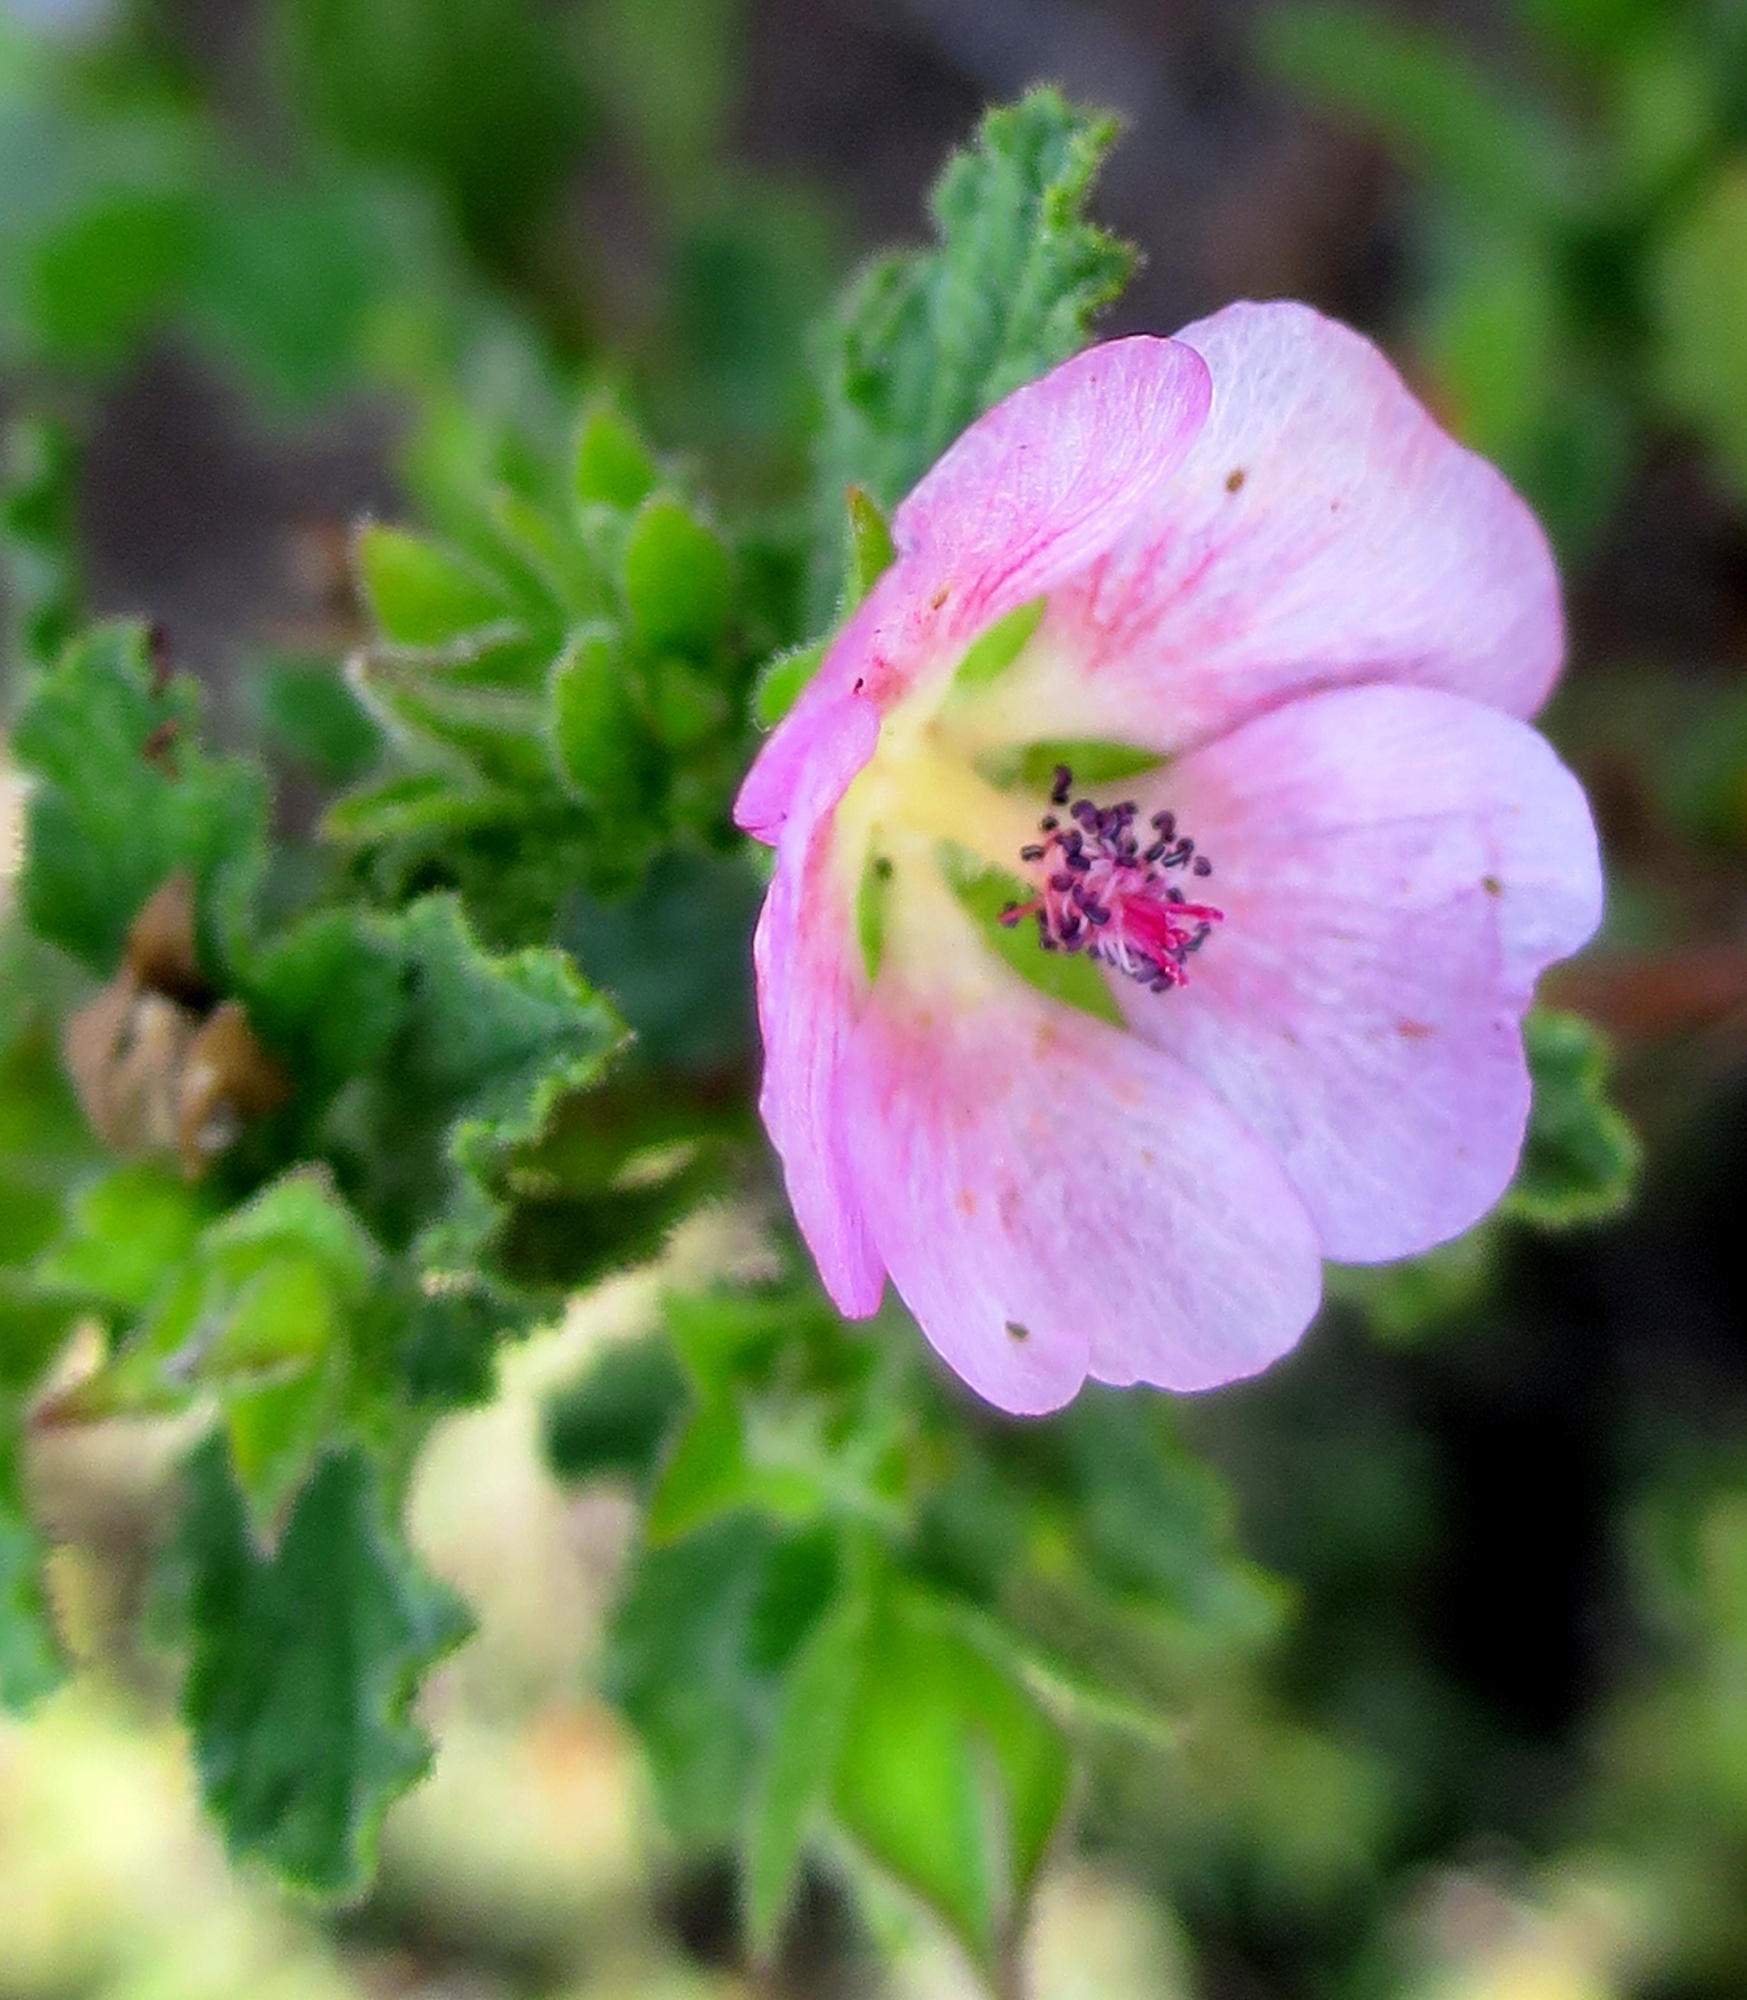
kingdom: Plantae
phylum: Tracheophyta
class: Magnoliopsida
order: Malvales
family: Malvaceae
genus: Anisodontea
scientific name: Anisodontea scabrosa
